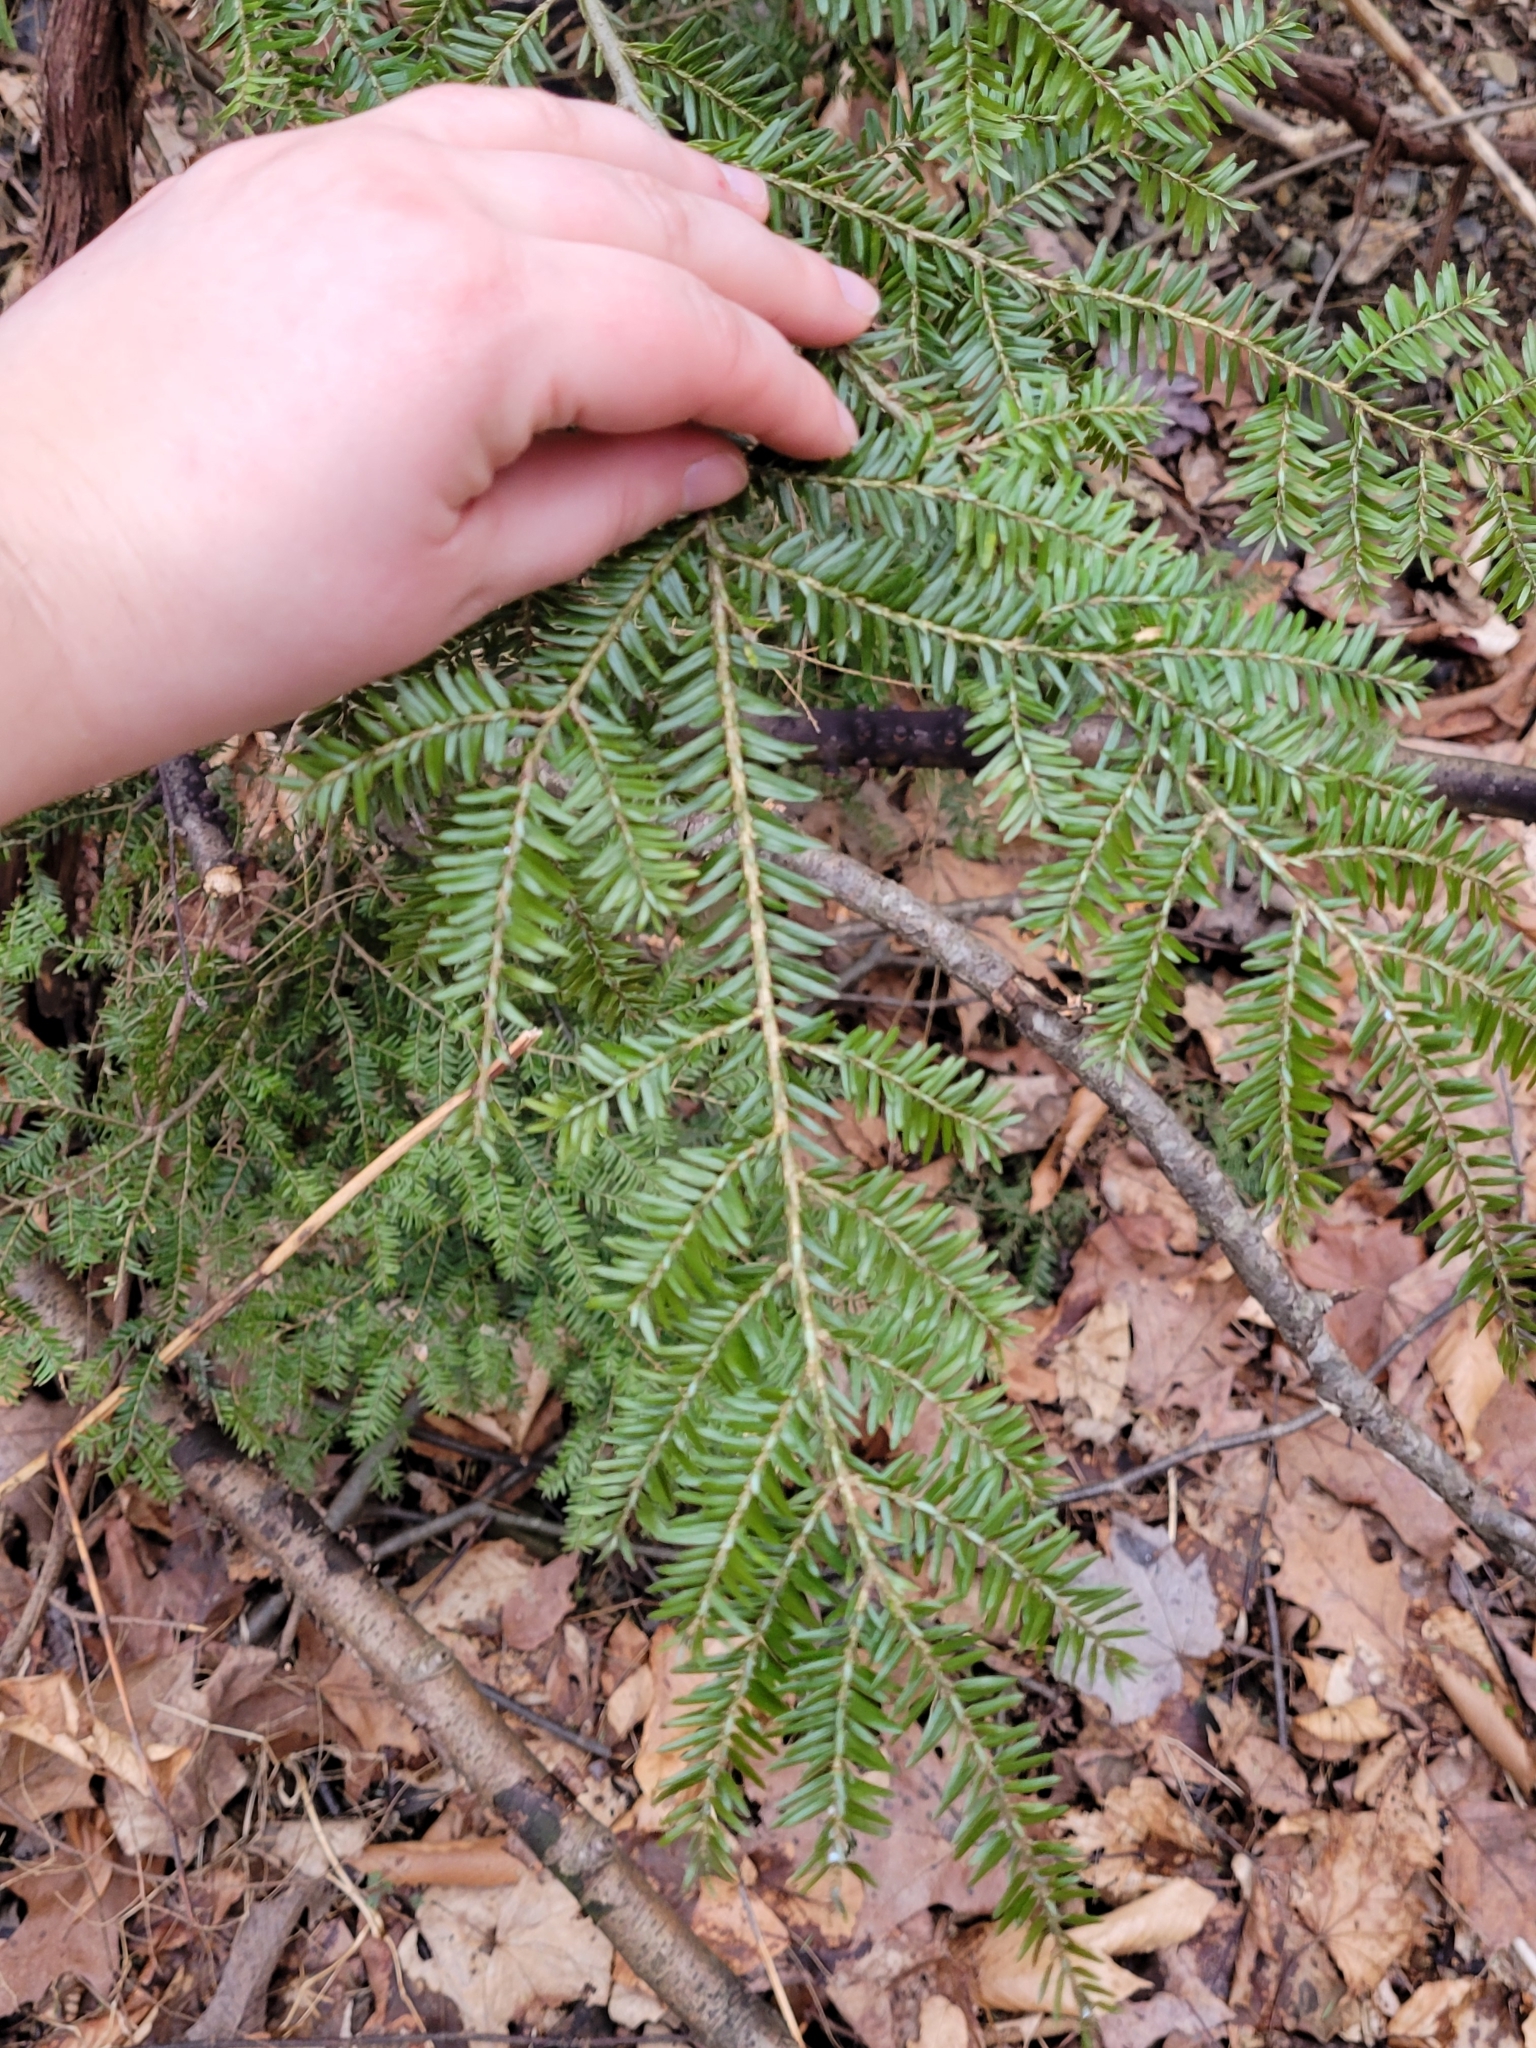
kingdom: Plantae
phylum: Tracheophyta
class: Pinopsida
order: Pinales
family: Pinaceae
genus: Tsuga
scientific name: Tsuga canadensis
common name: Eastern hemlock
